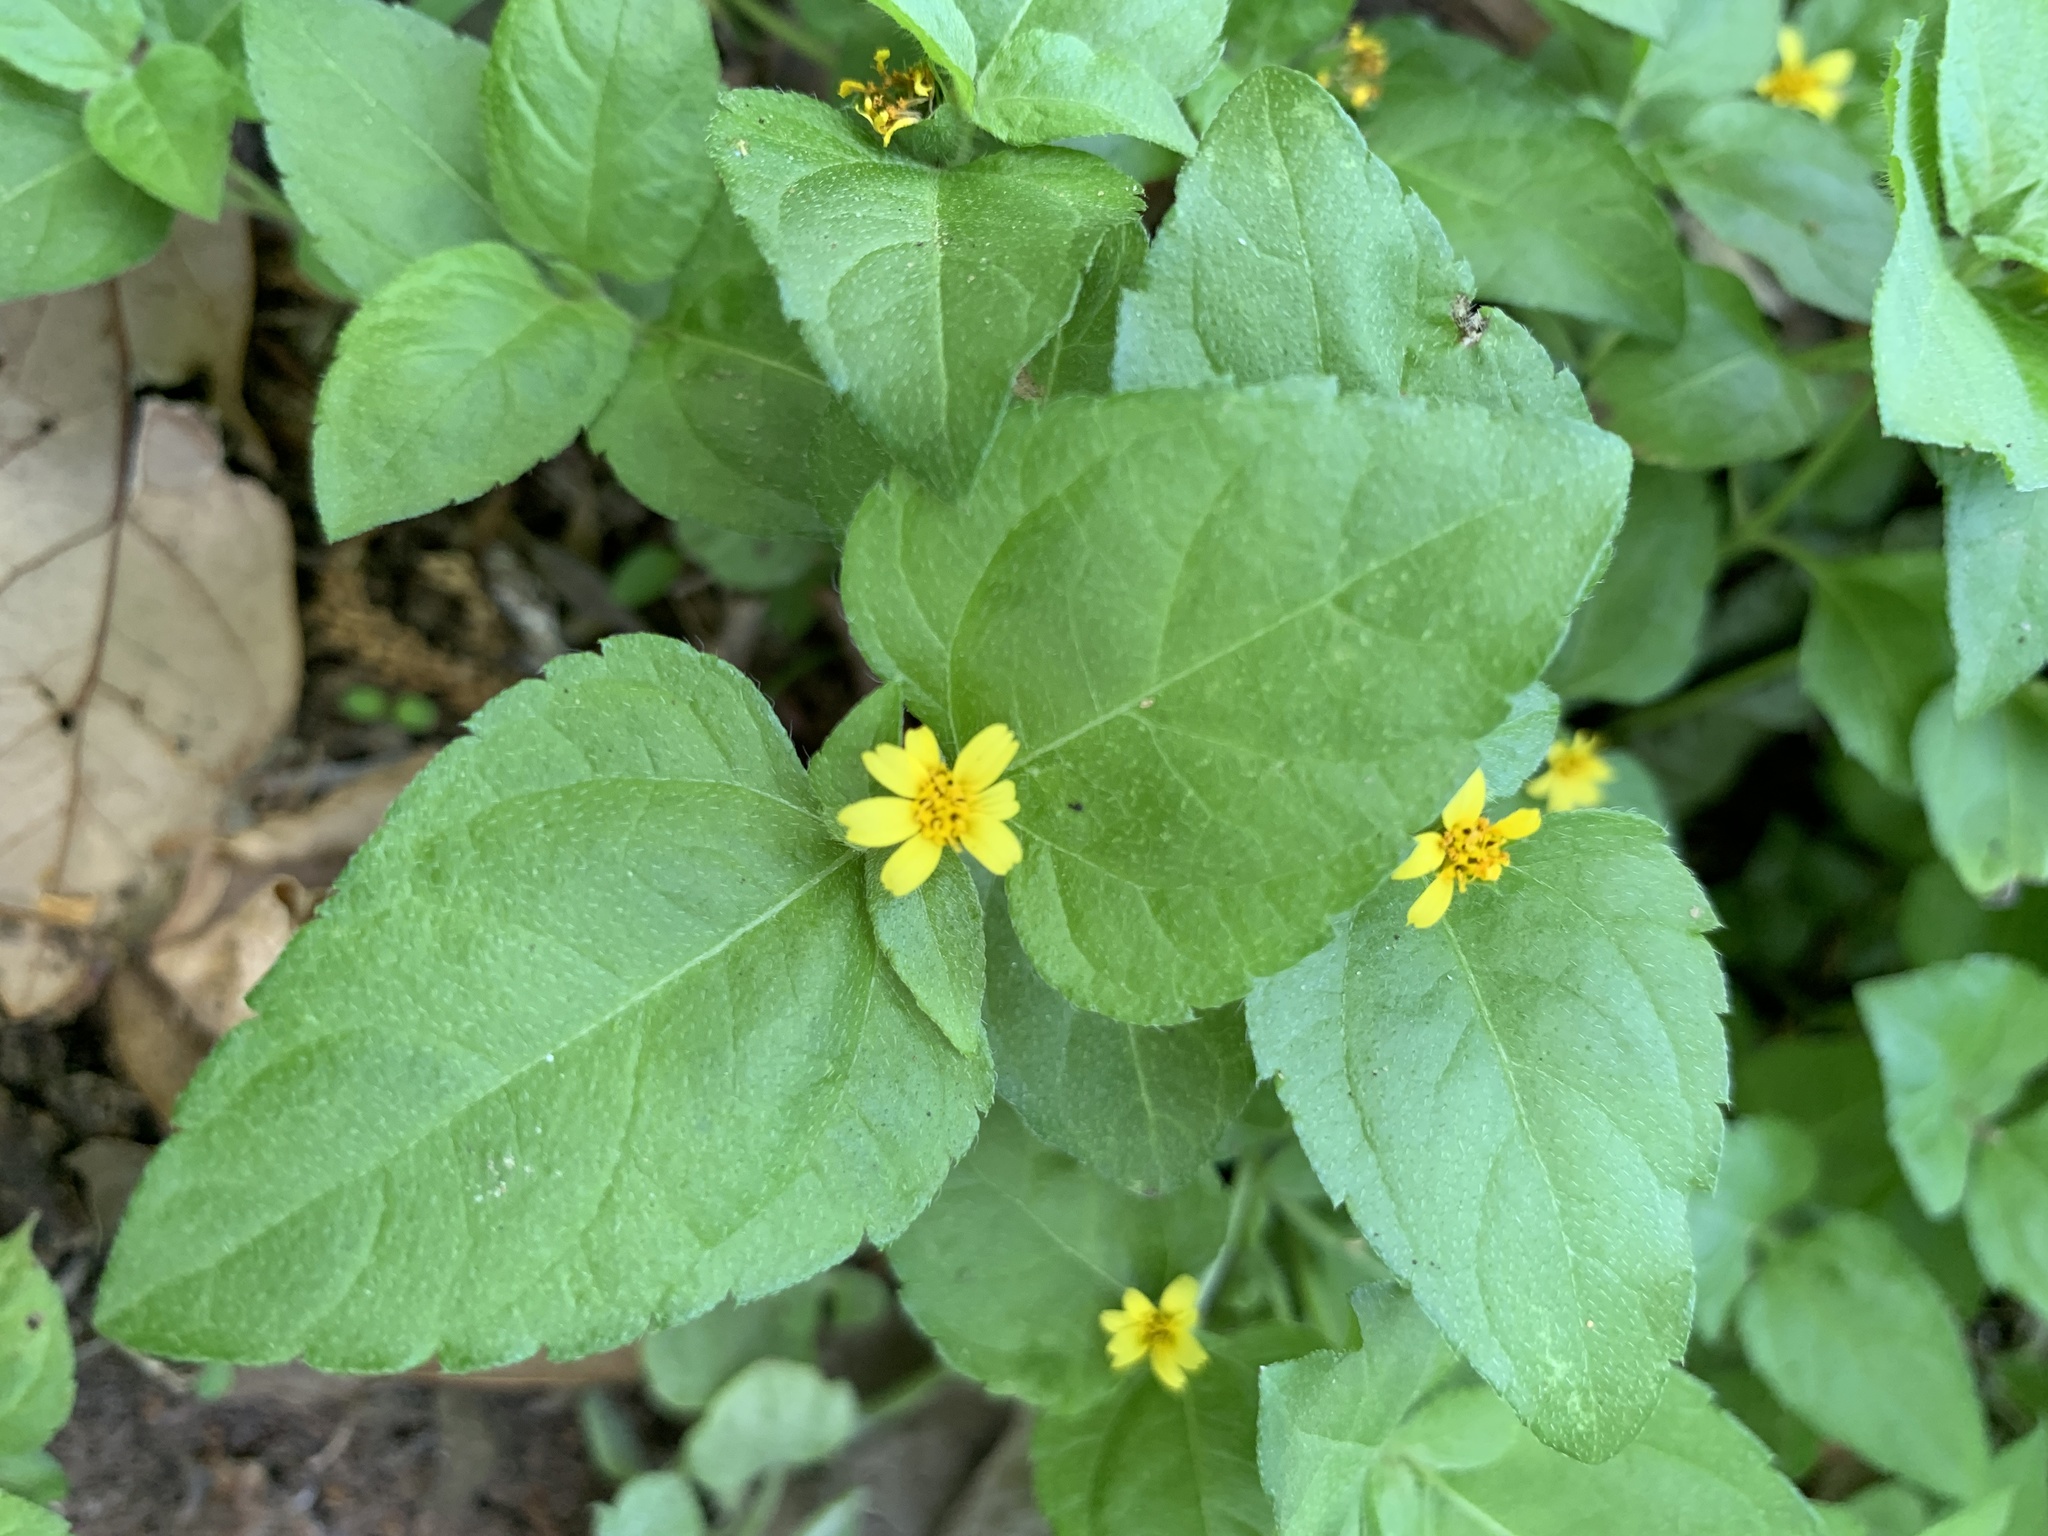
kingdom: Plantae
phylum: Tracheophyta
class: Magnoliopsida
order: Asterales
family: Asteraceae
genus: Calyptocarpus
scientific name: Calyptocarpus vialis
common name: Straggler daisy
